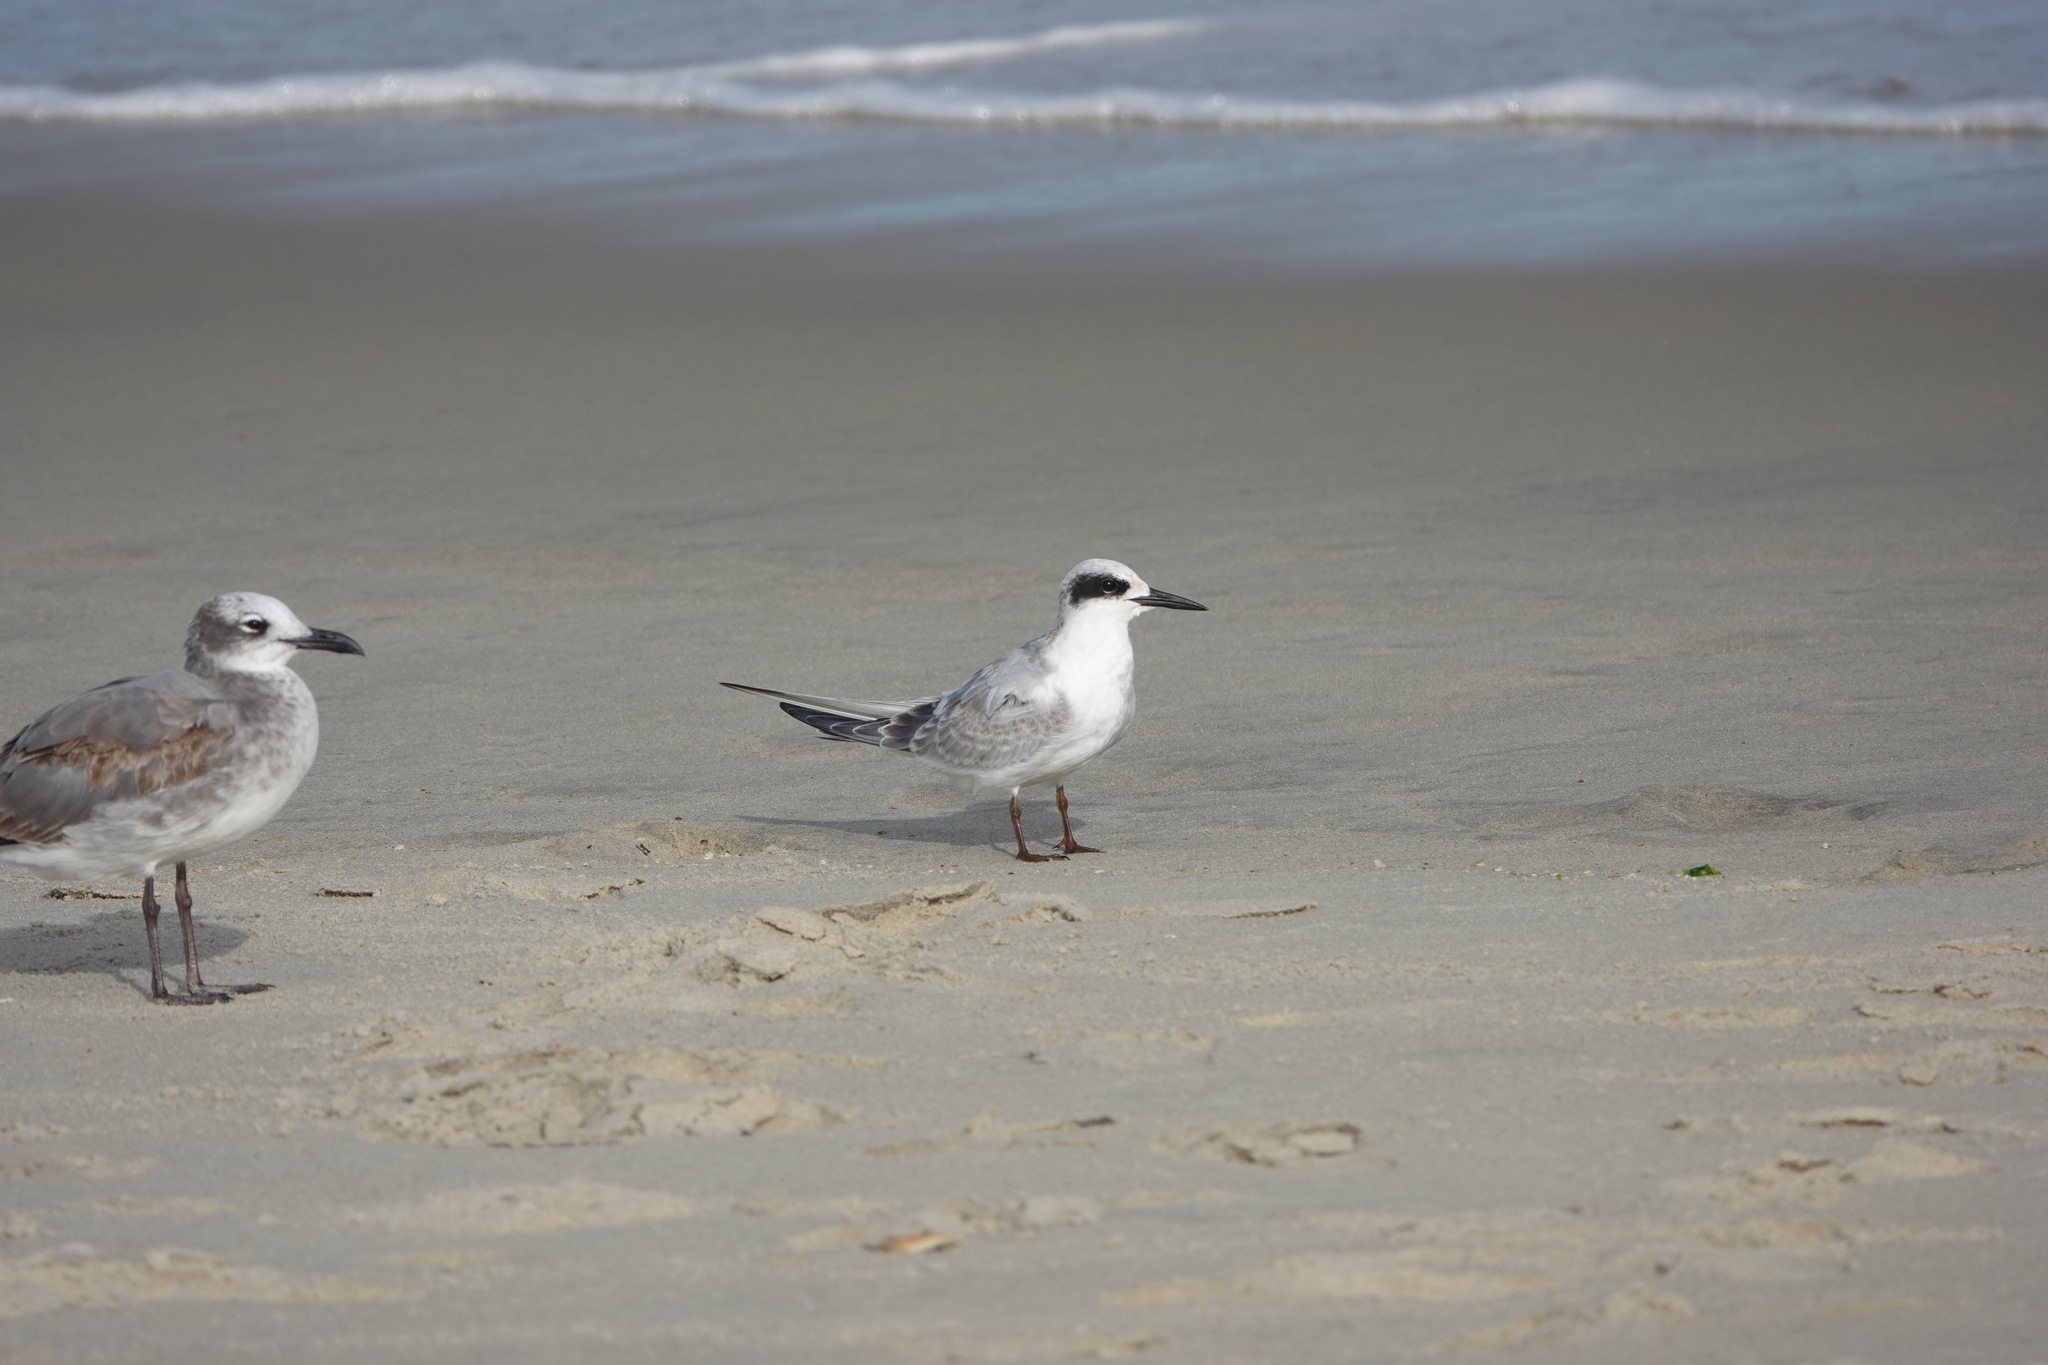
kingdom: Animalia
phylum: Chordata
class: Aves
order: Charadriiformes
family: Laridae
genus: Sterna
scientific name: Sterna forsteri
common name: Forster's tern
